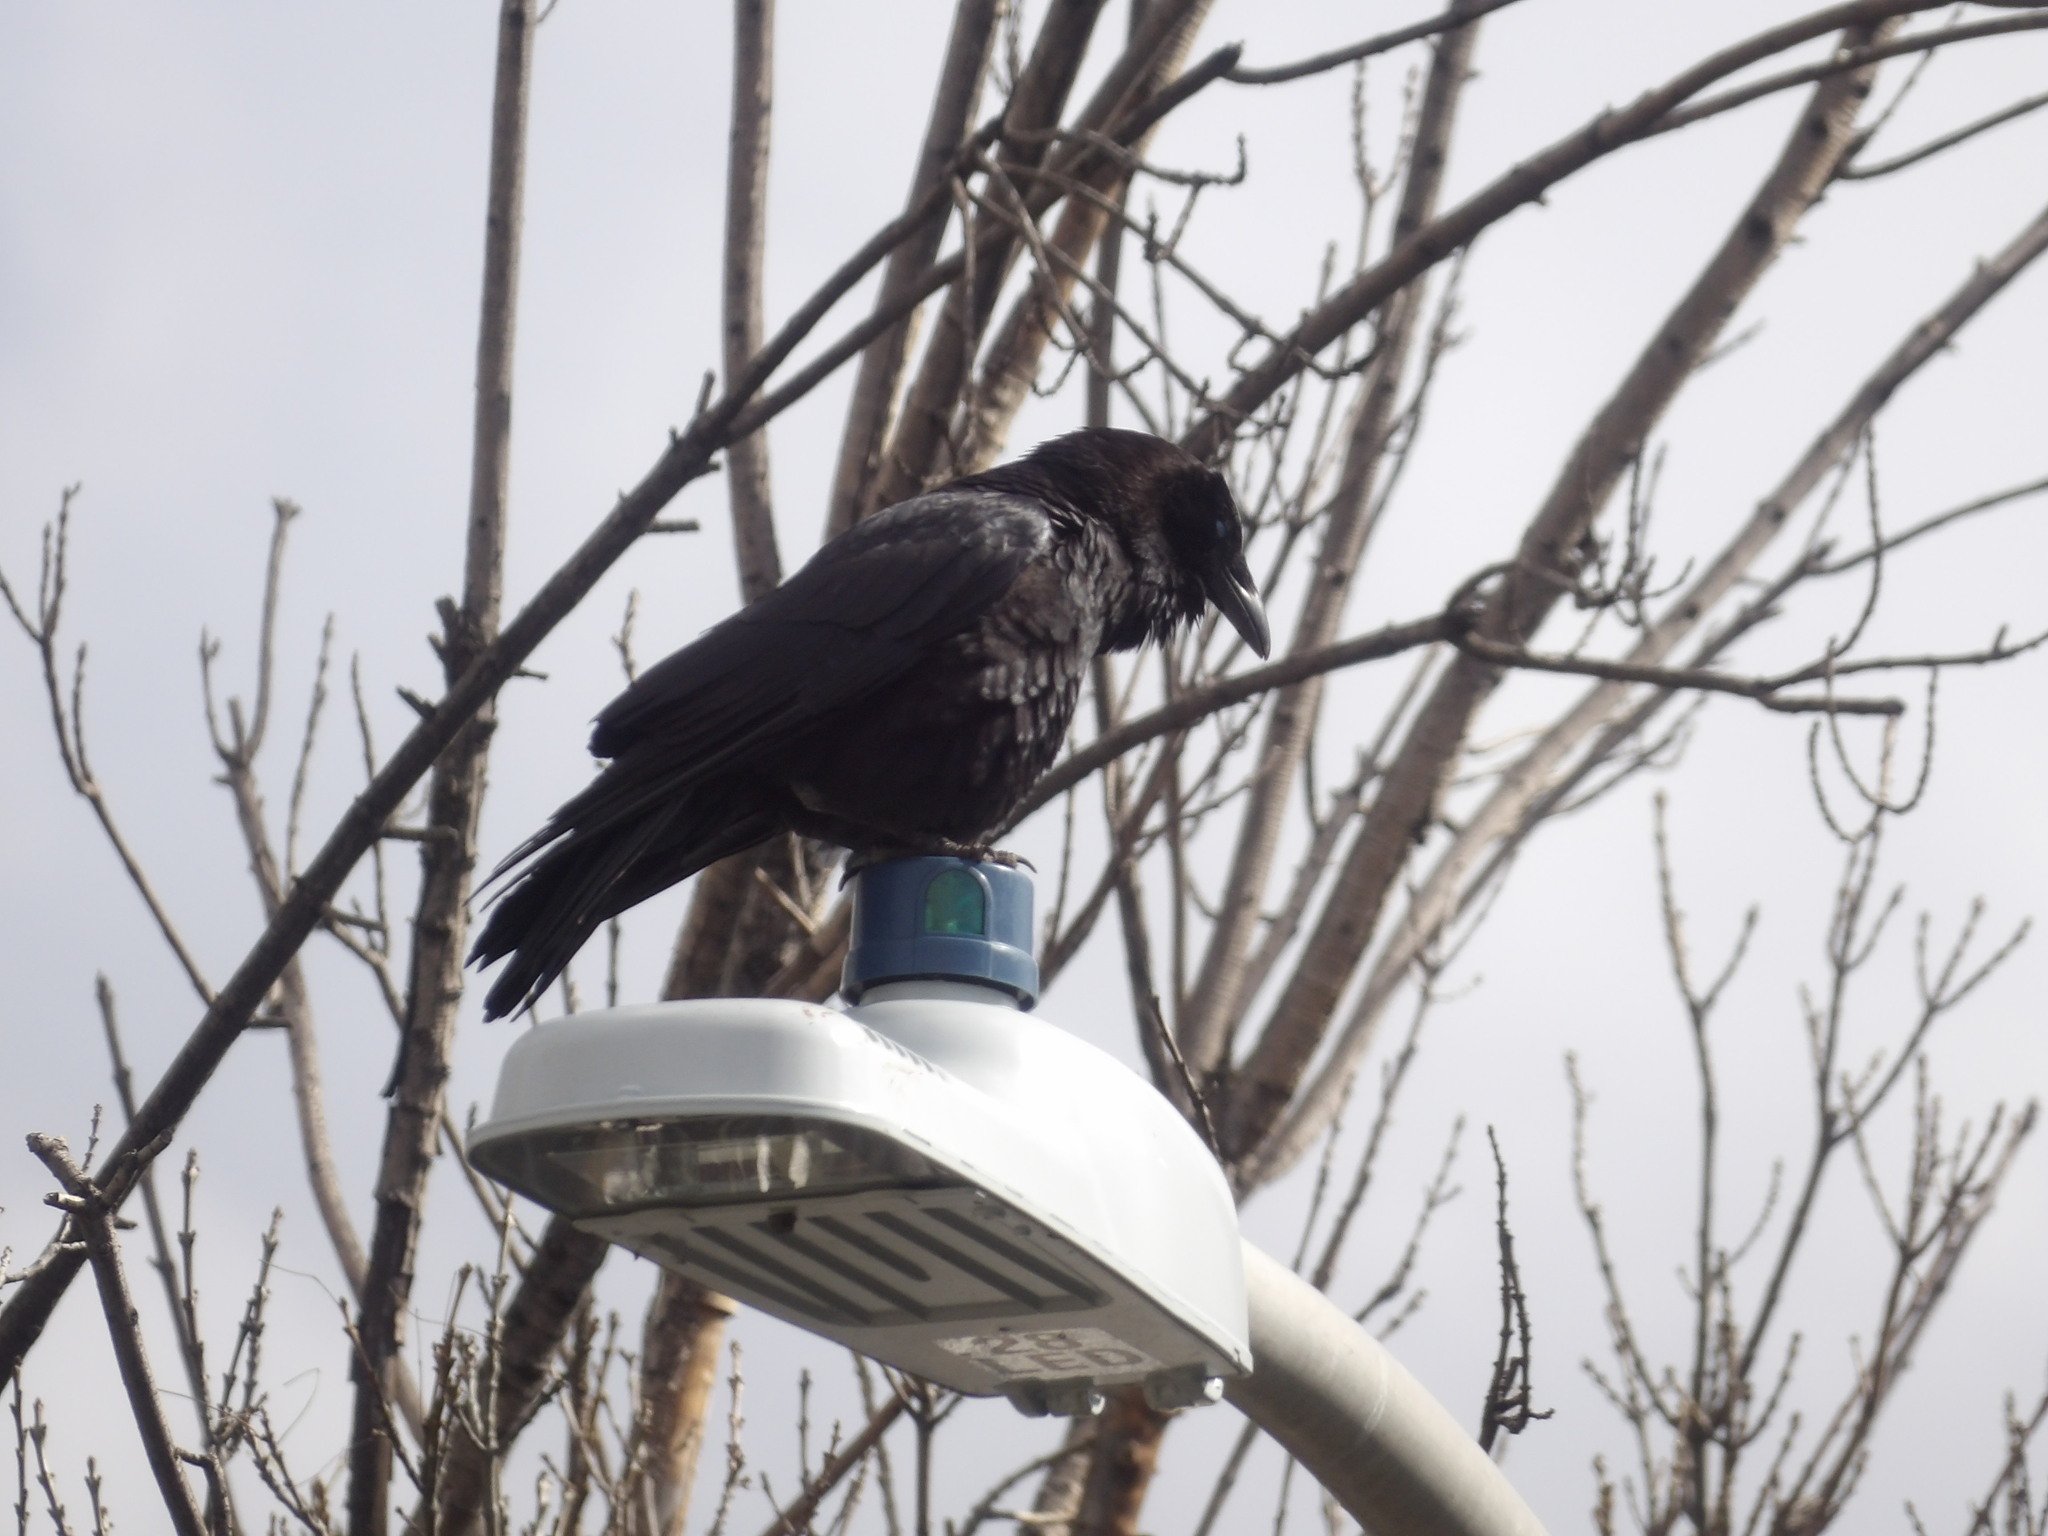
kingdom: Animalia
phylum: Chordata
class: Aves
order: Passeriformes
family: Corvidae
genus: Corvus
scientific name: Corvus corax
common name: Common raven
